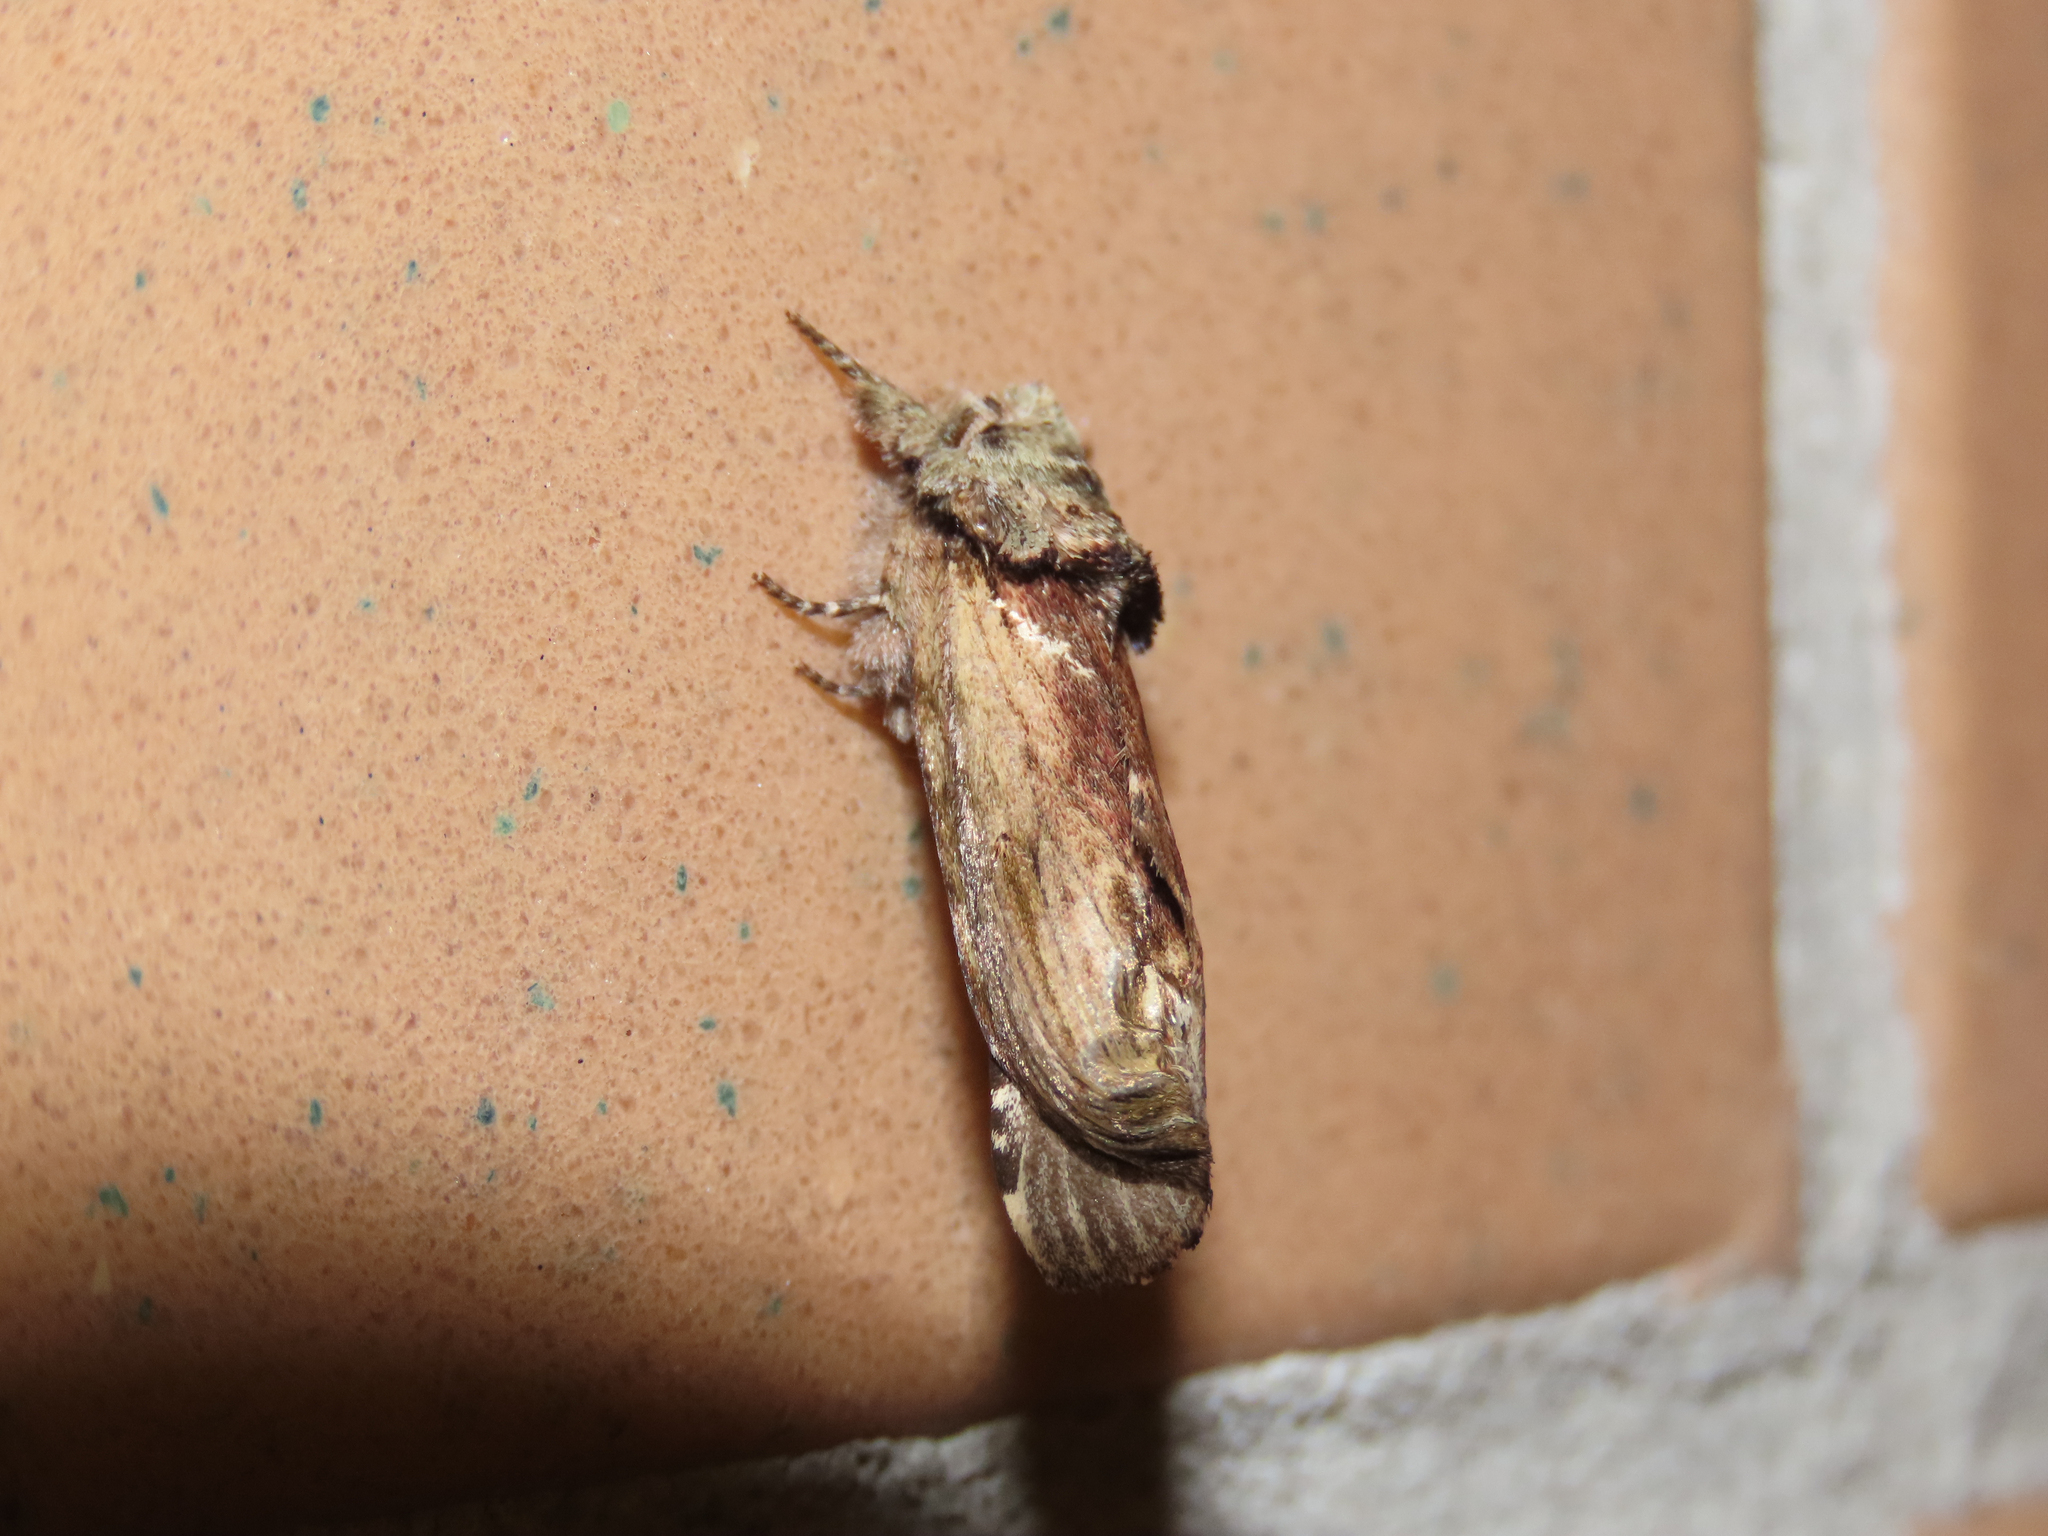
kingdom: Animalia
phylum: Arthropoda
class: Insecta
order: Lepidoptera
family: Notodontidae
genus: Schizura
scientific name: Schizura
